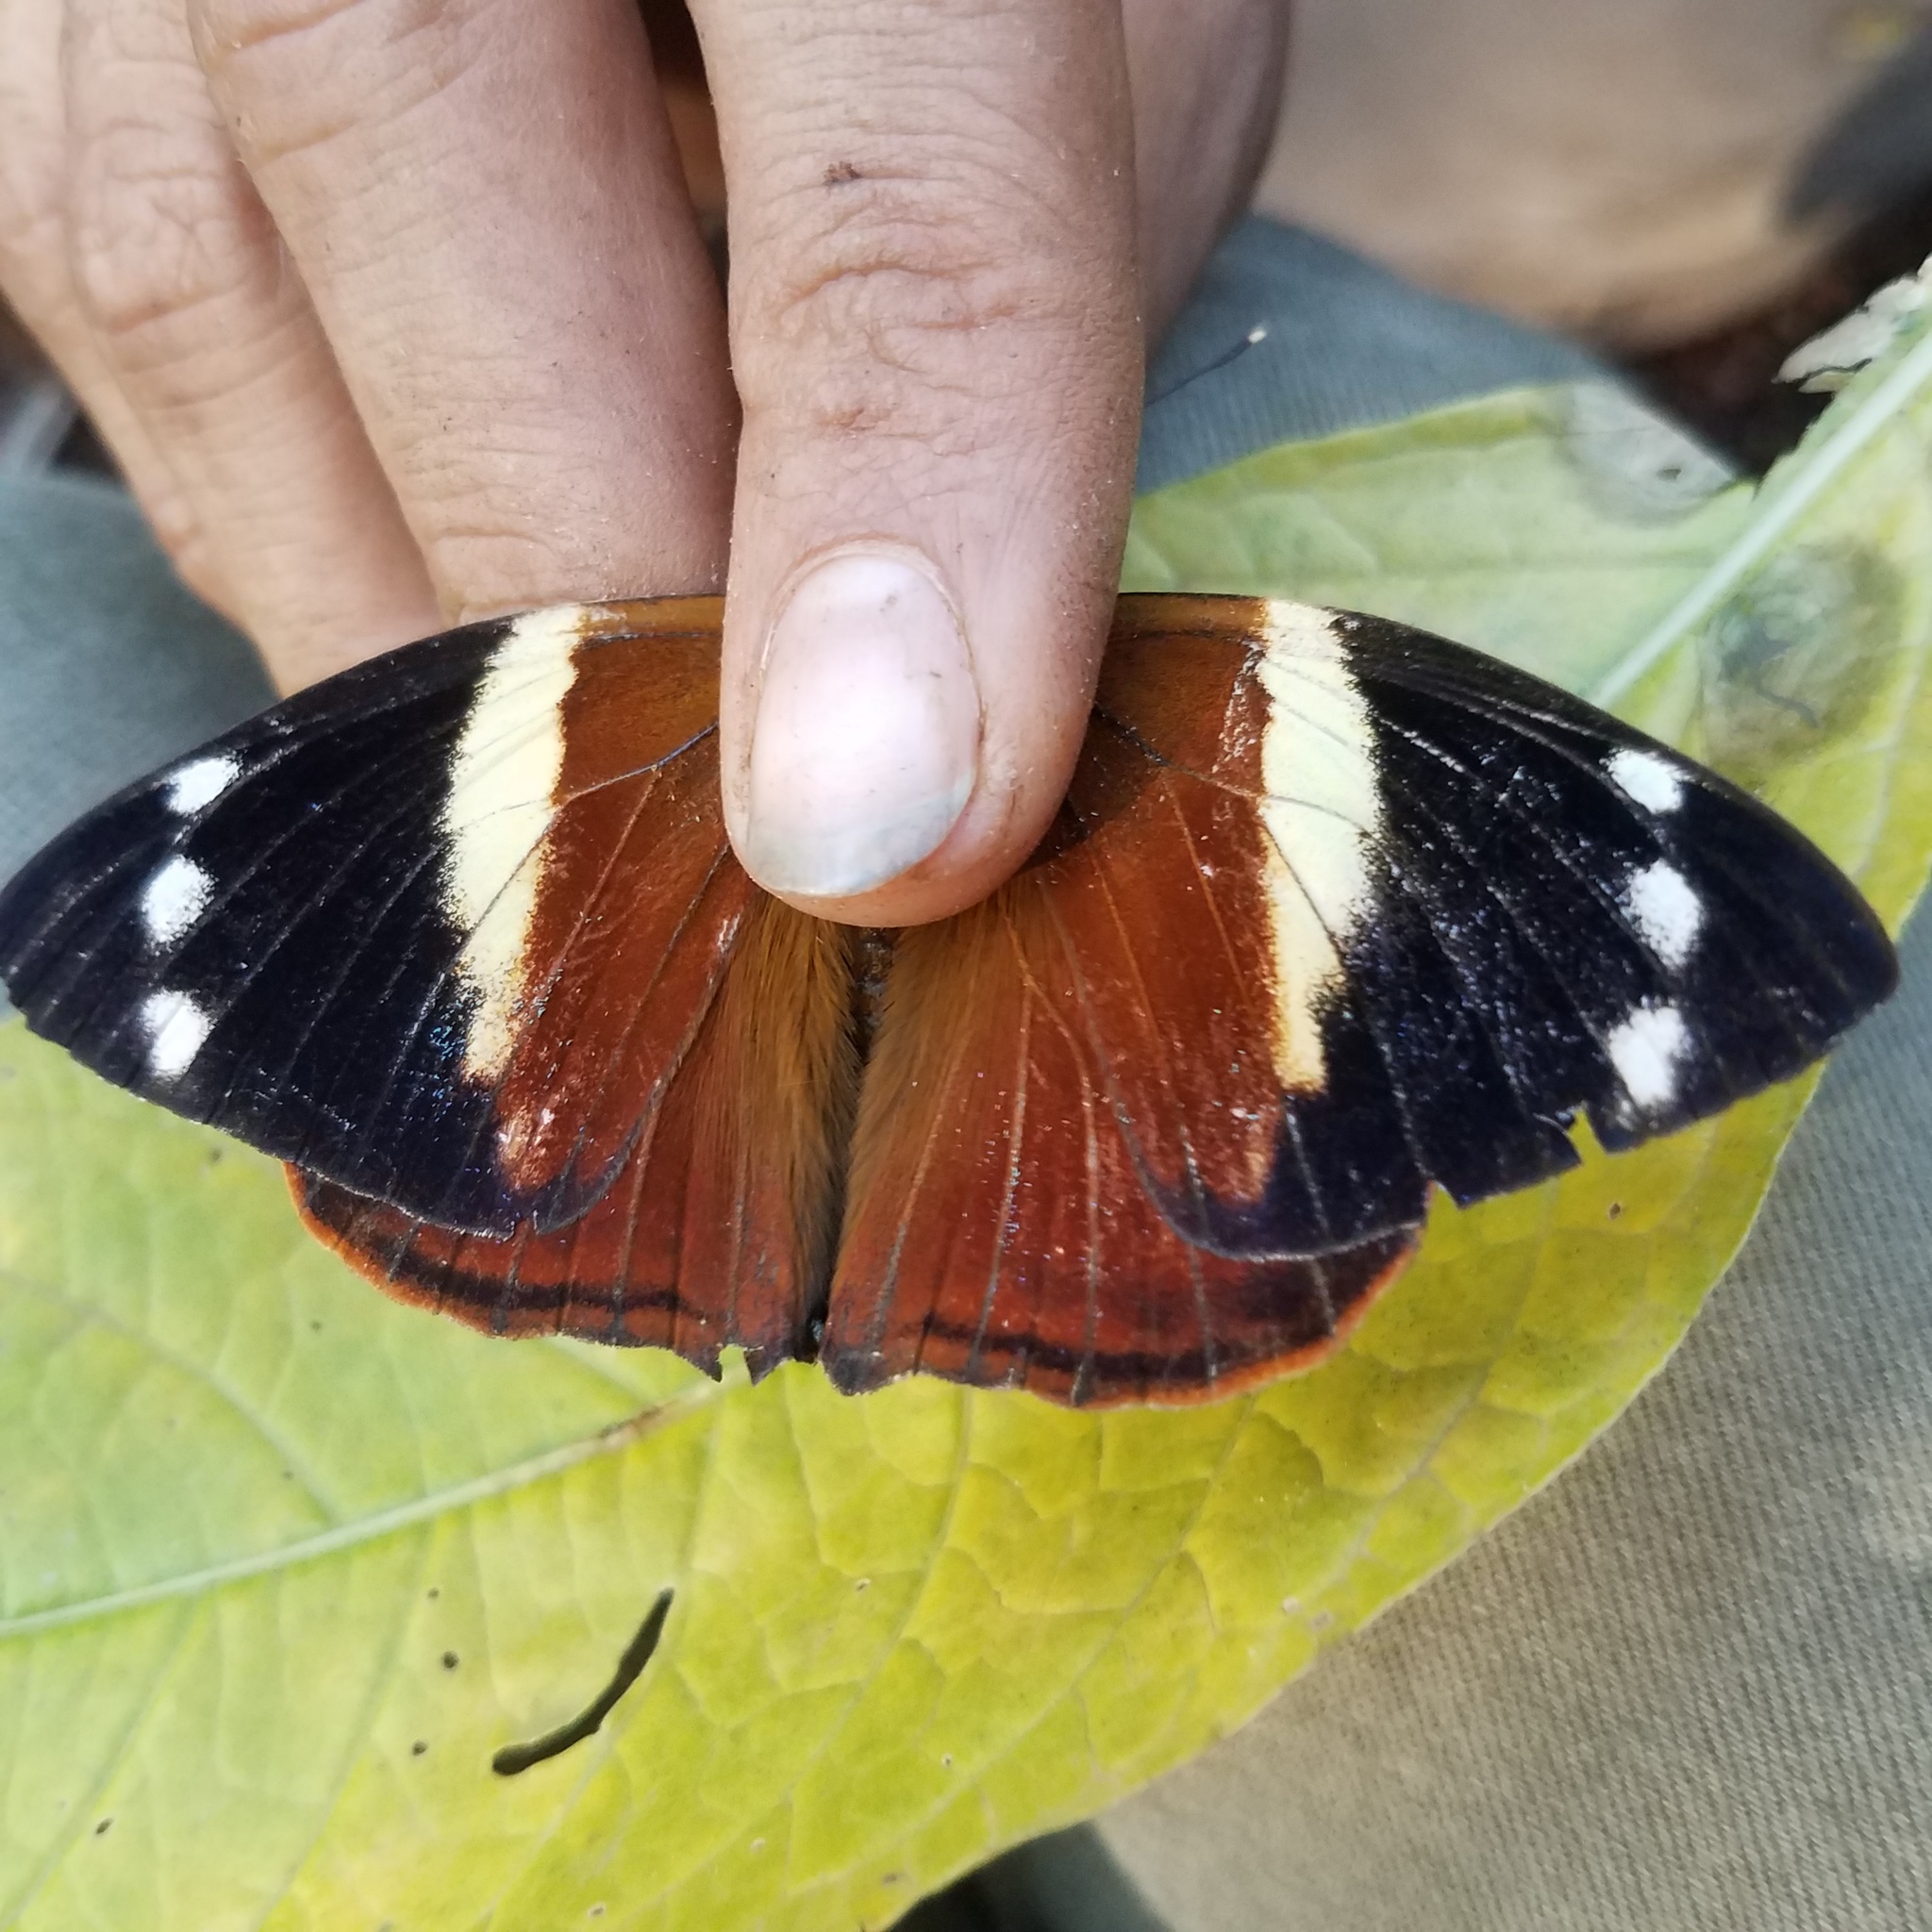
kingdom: Animalia
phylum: Arthropoda
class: Insecta
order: Lepidoptera
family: Nymphalidae
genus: Smyrna
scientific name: Smyrna blomfildia
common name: Blomfild's beauty
